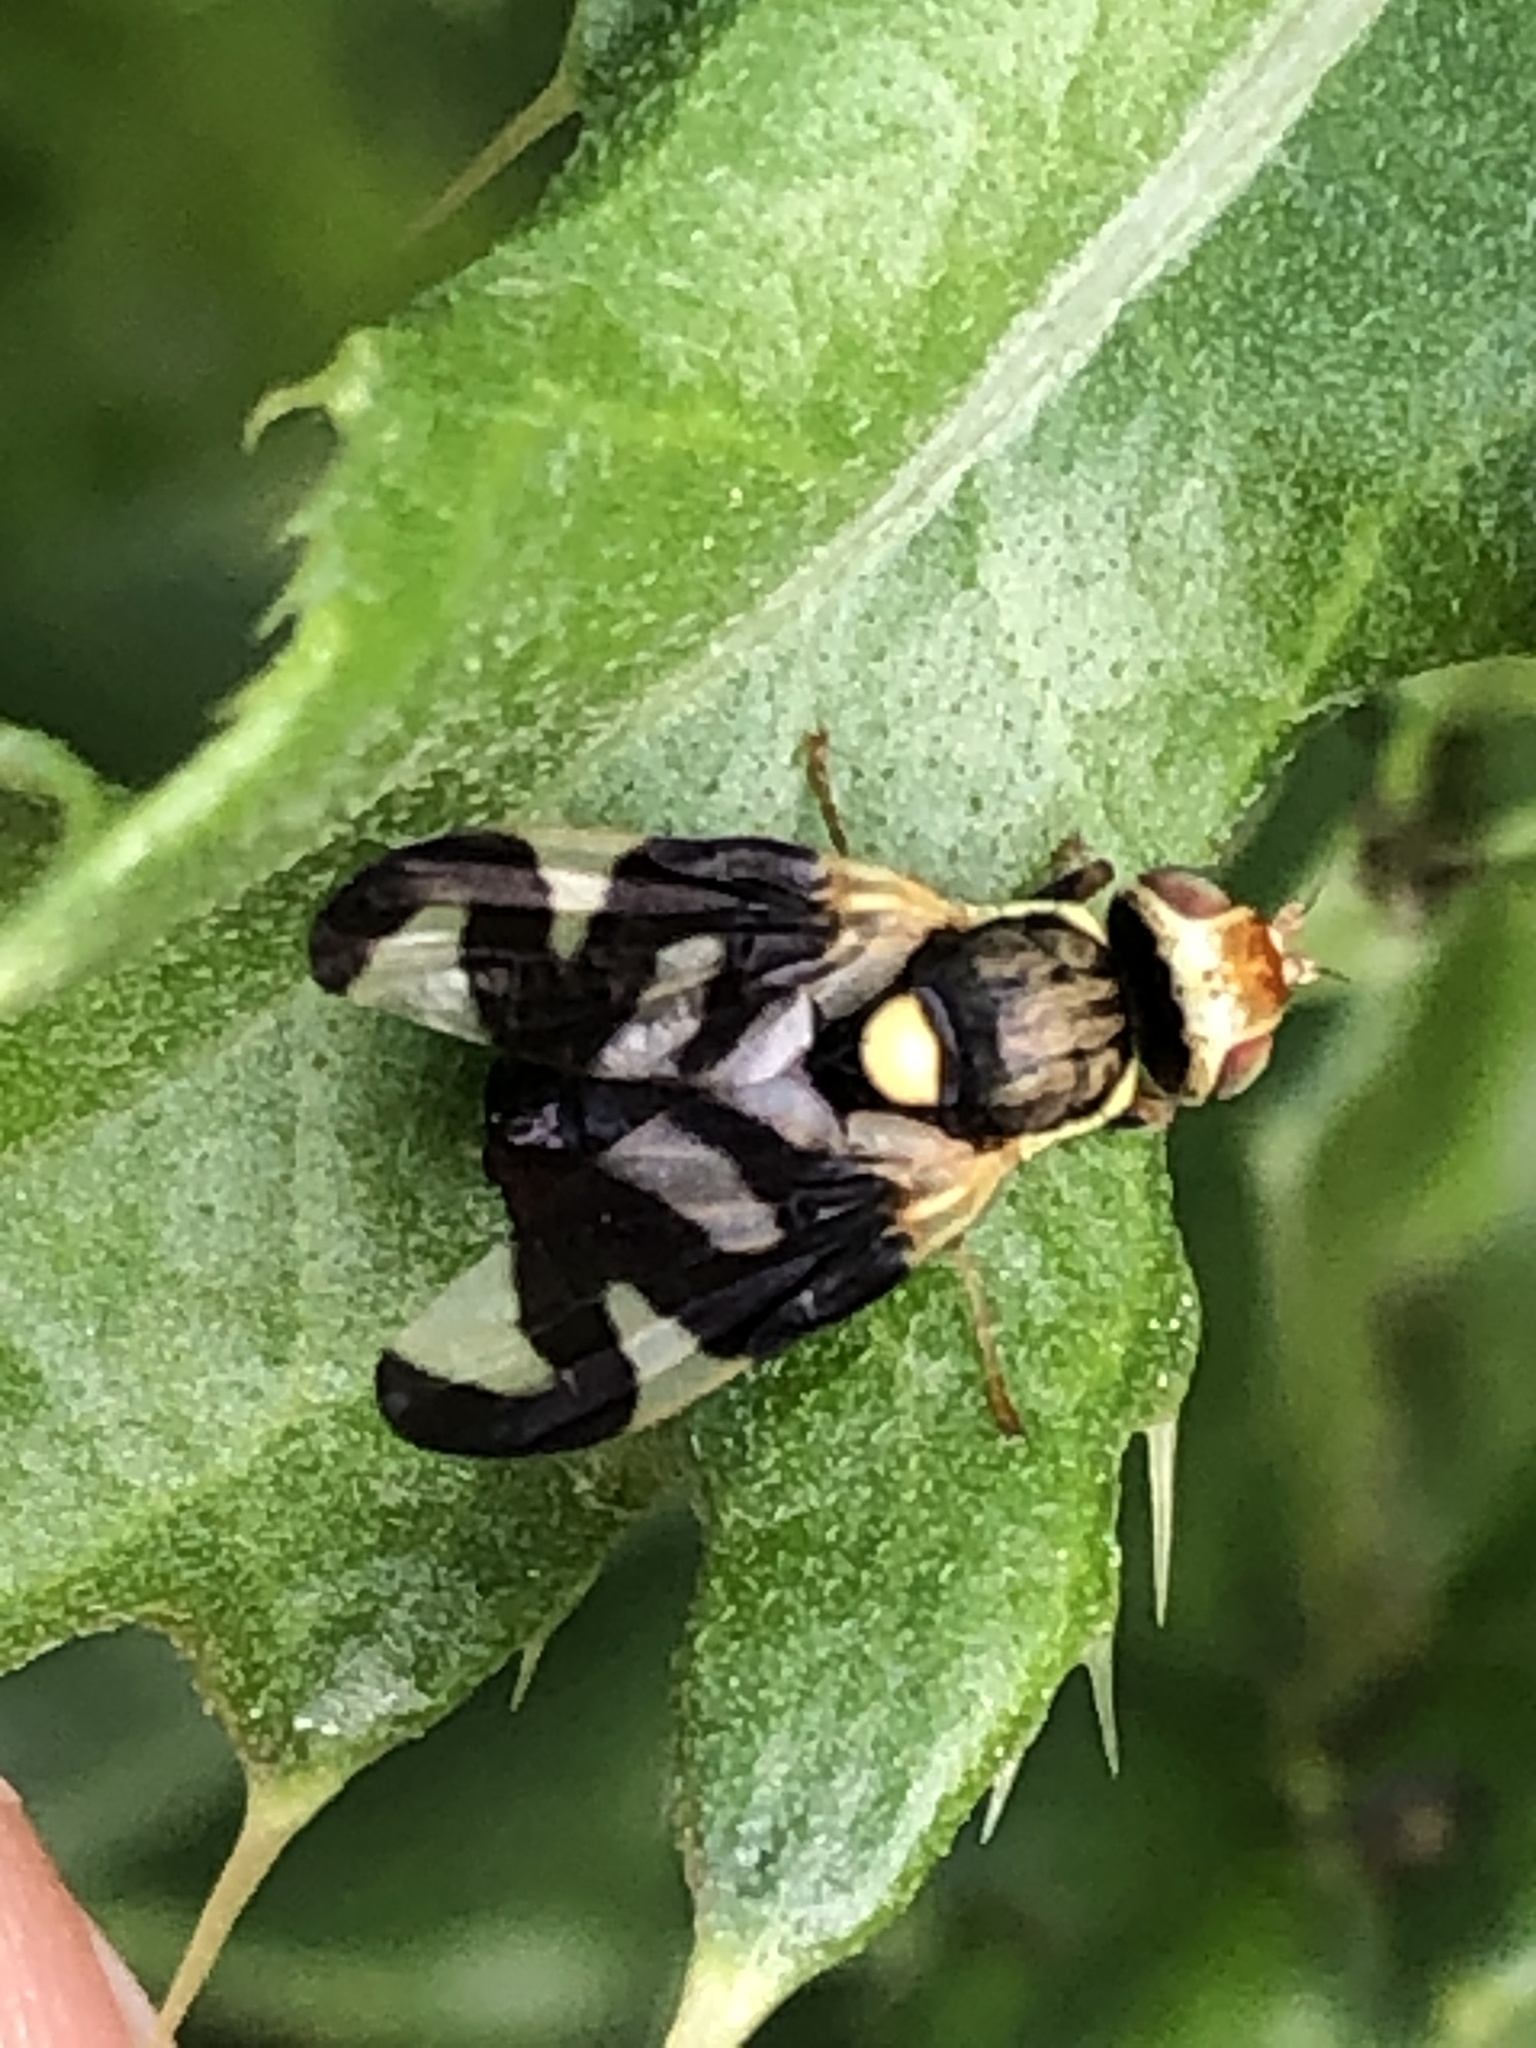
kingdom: Animalia
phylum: Arthropoda
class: Insecta
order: Diptera
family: Tephritidae
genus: Urophora
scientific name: Urophora cardui
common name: Fruit fly
